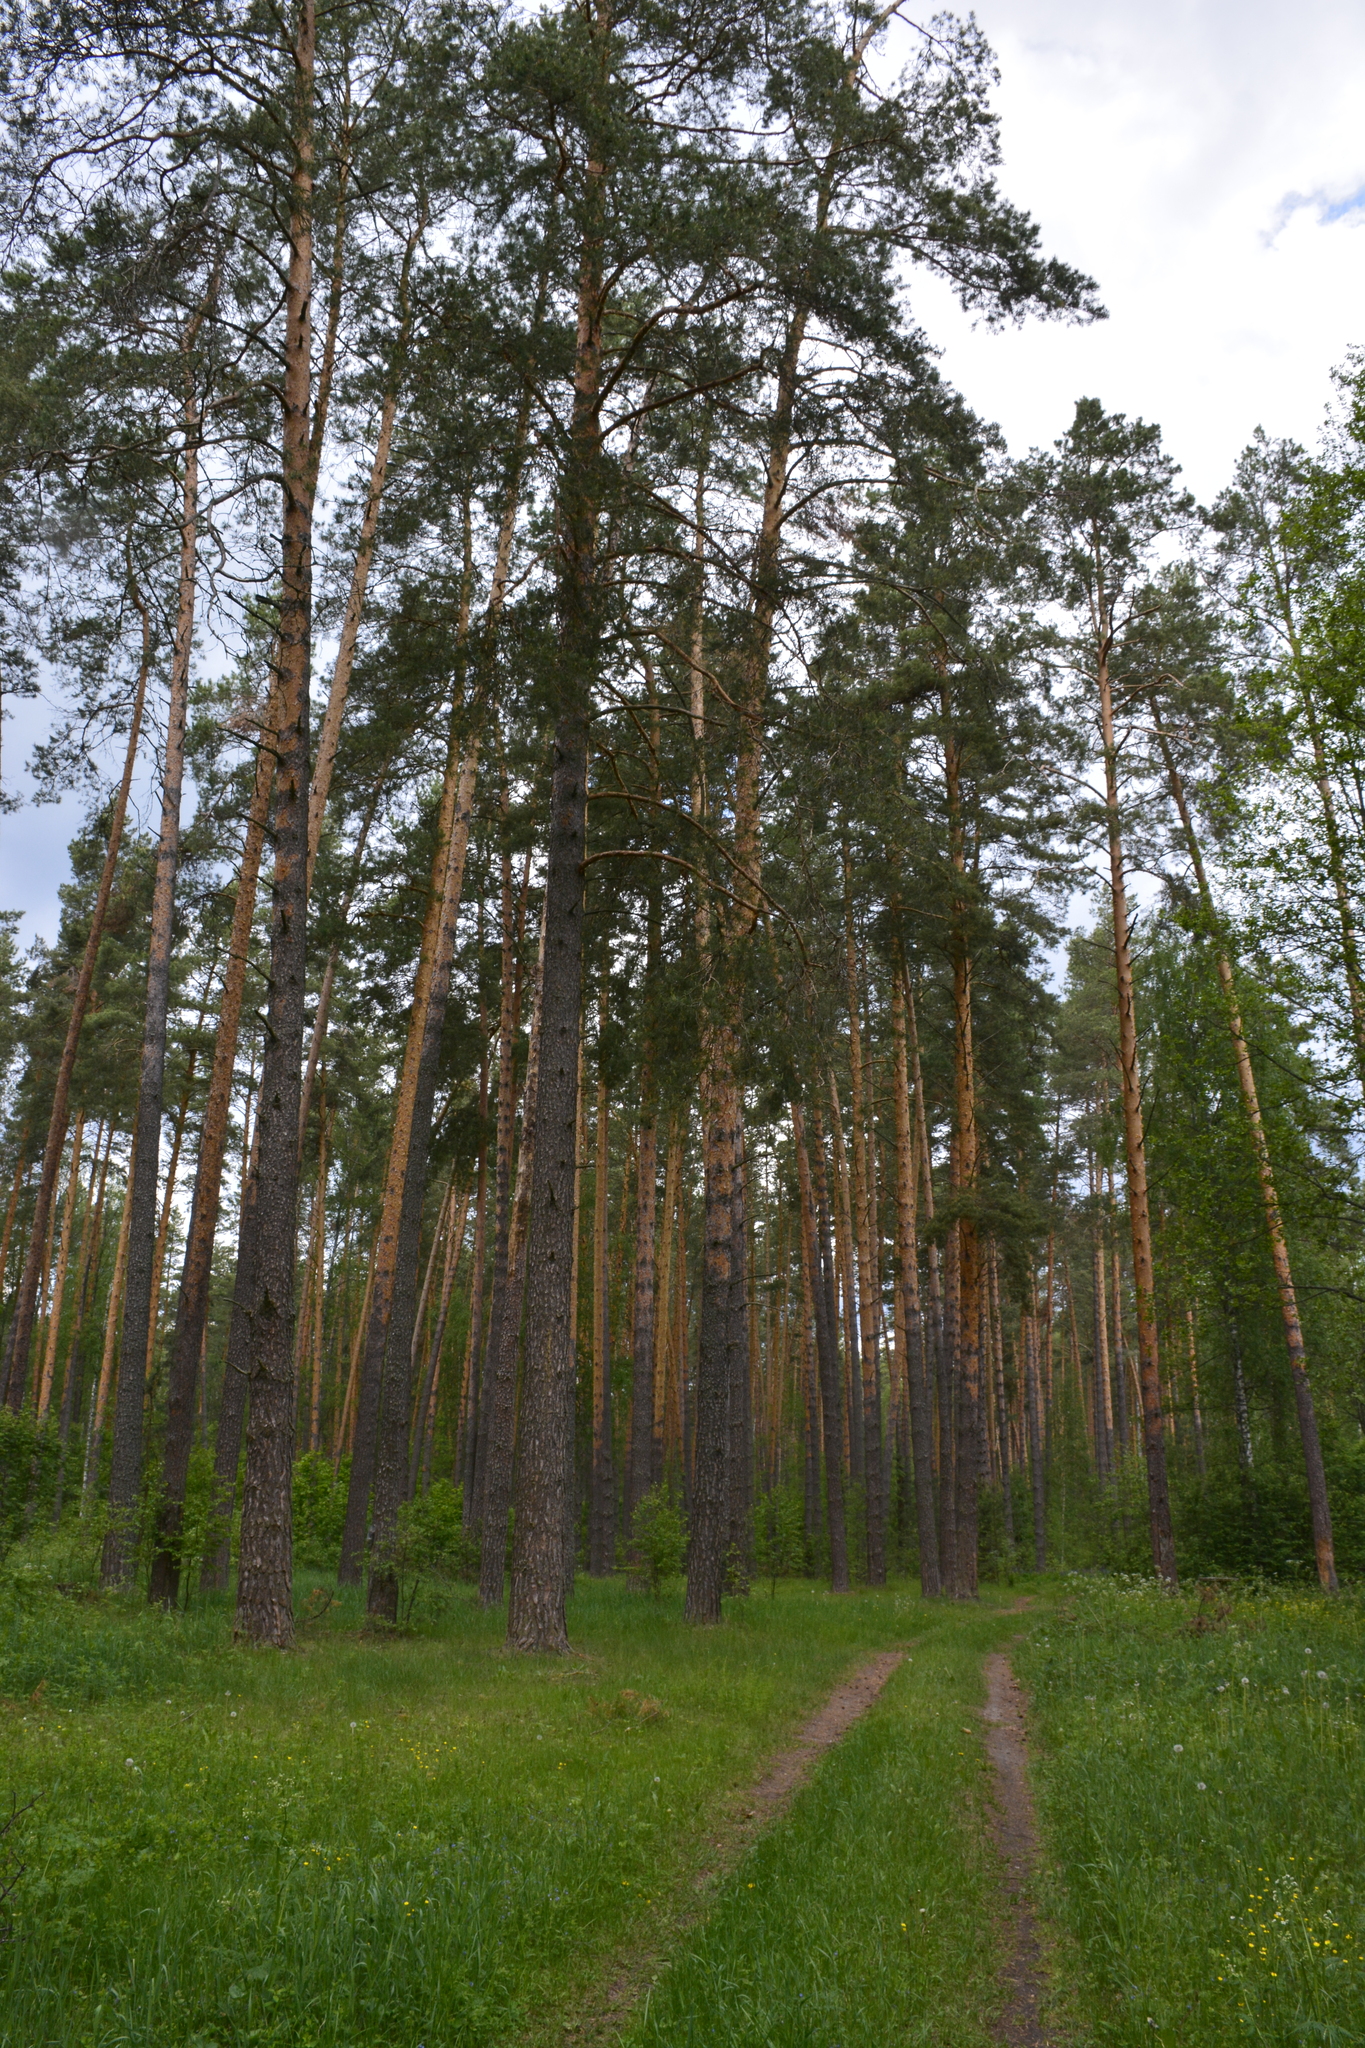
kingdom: Plantae
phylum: Tracheophyta
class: Pinopsida
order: Pinales
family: Pinaceae
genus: Pinus
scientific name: Pinus sylvestris
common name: Scots pine
